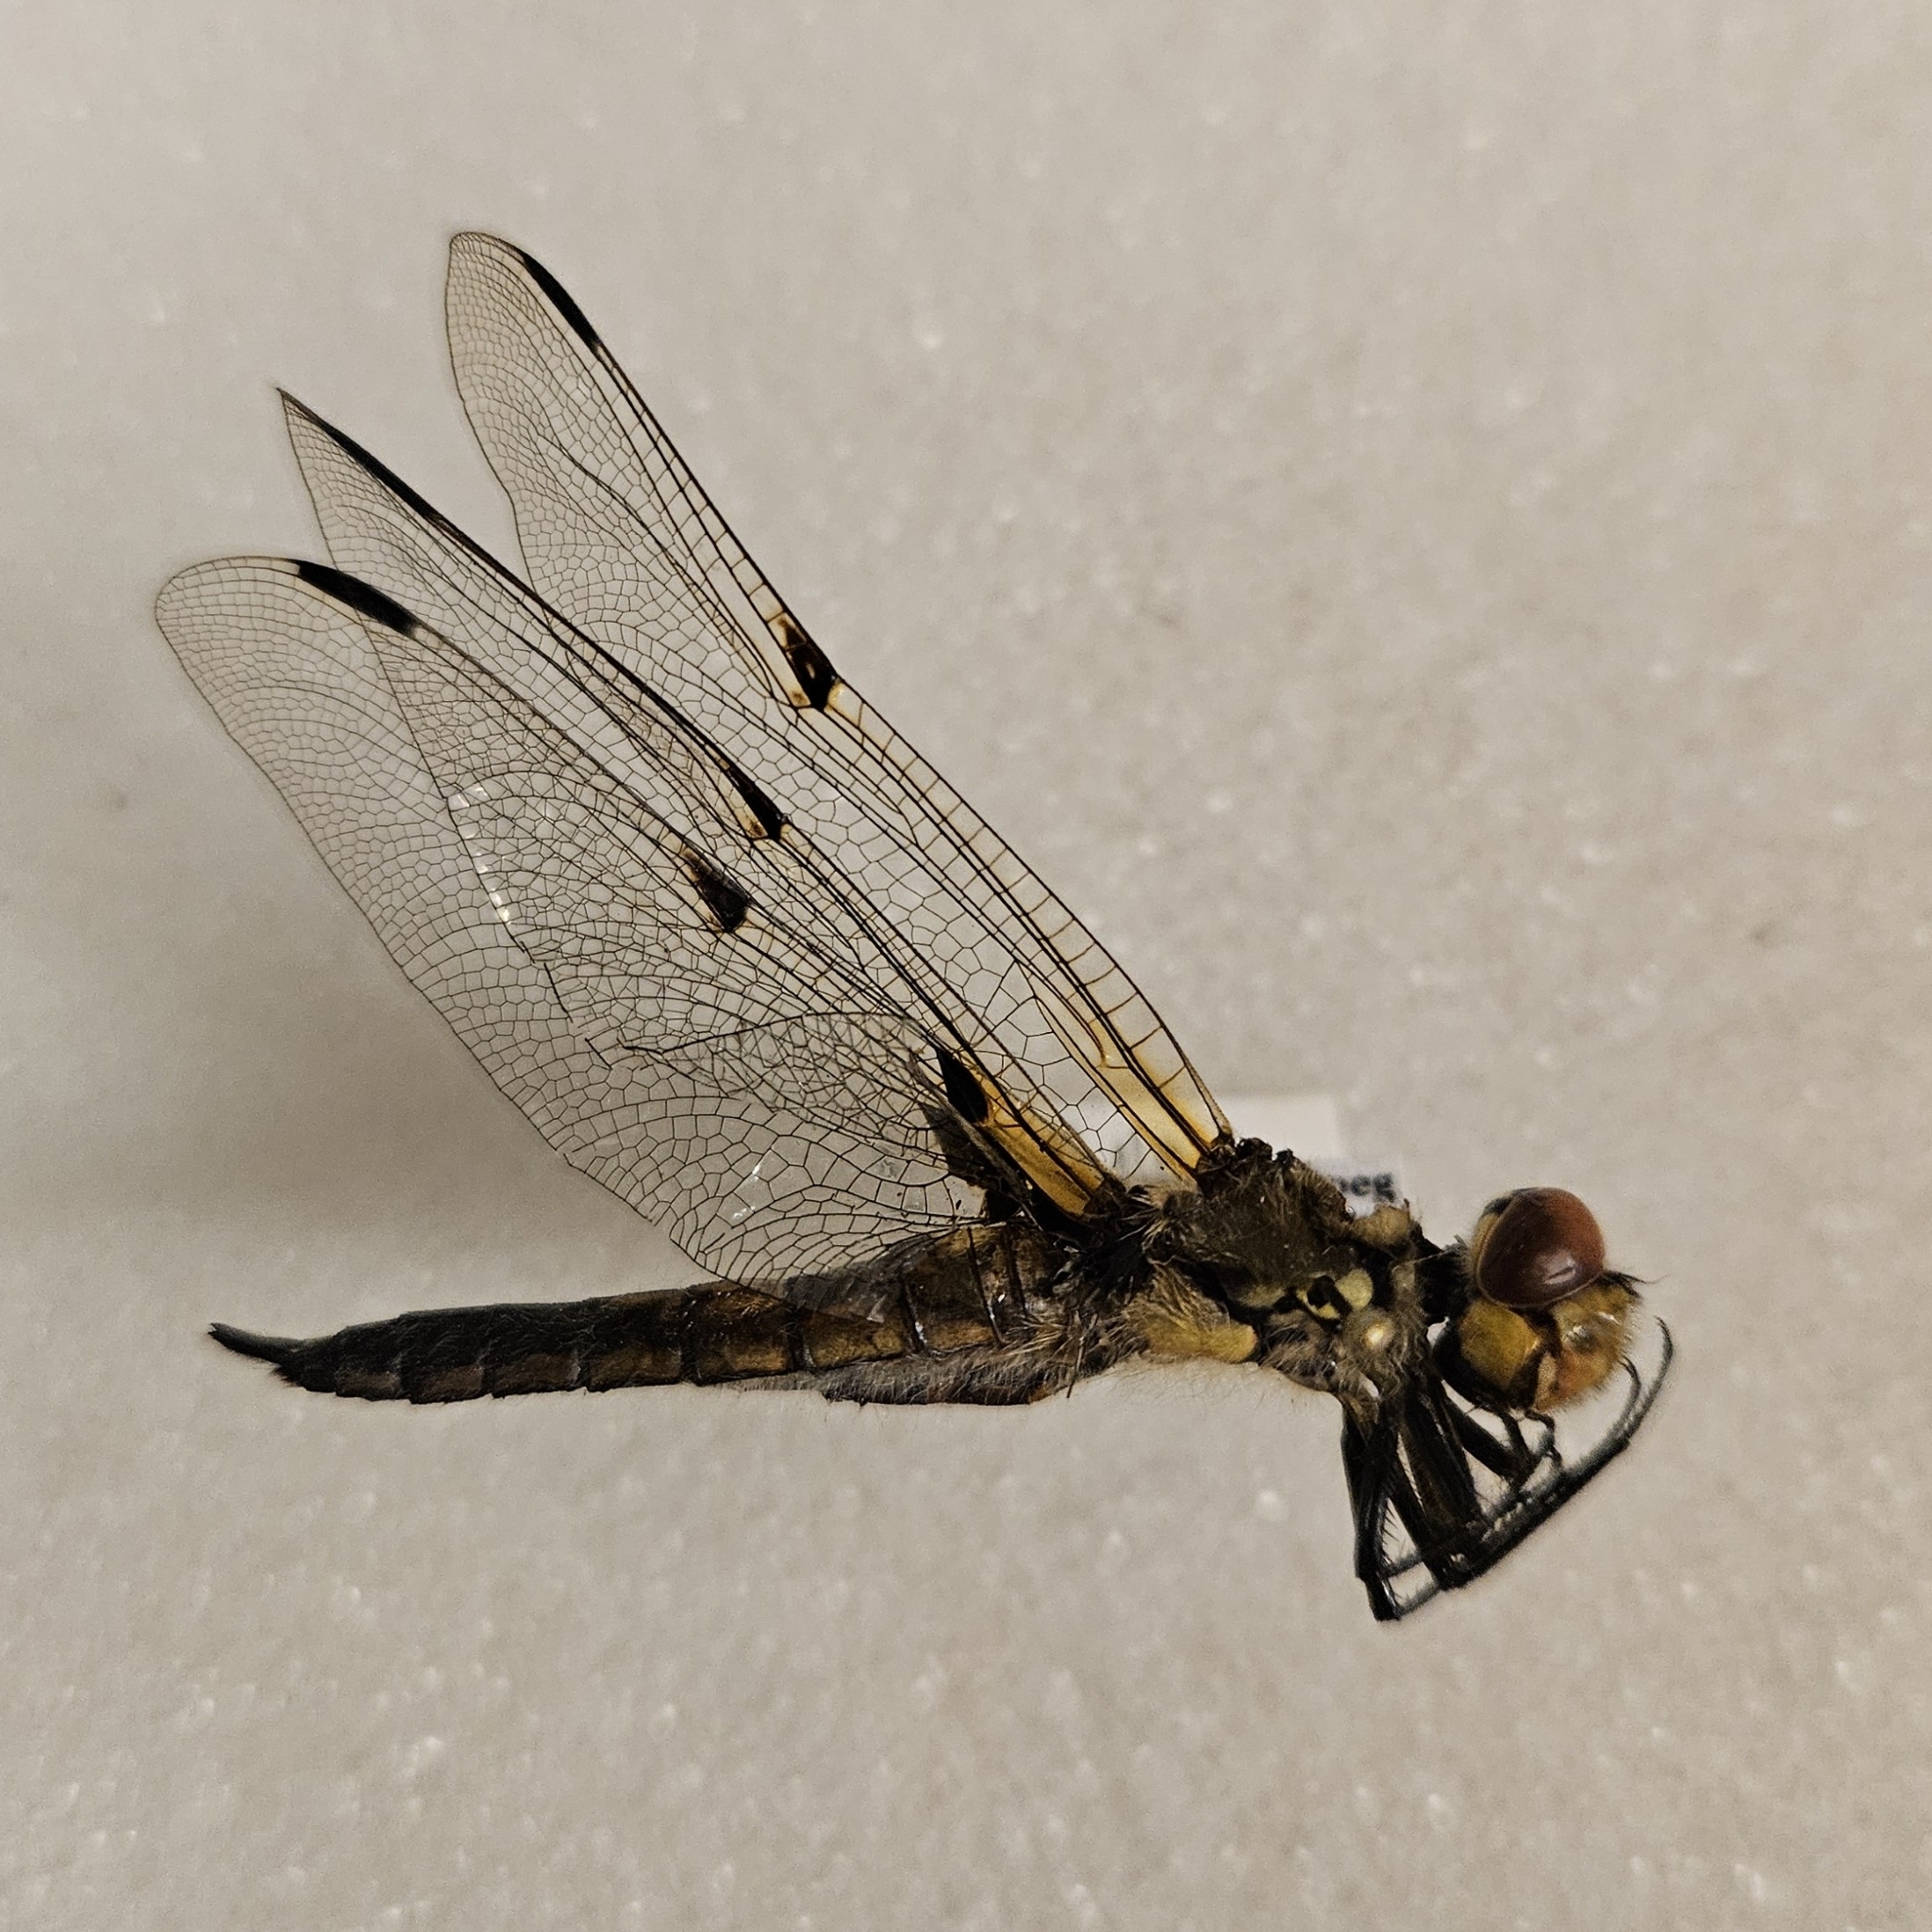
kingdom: Animalia
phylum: Arthropoda
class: Insecta
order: Odonata
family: Libellulidae
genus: Libellula
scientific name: Libellula quadrimaculata
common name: Four-spotted chaser
